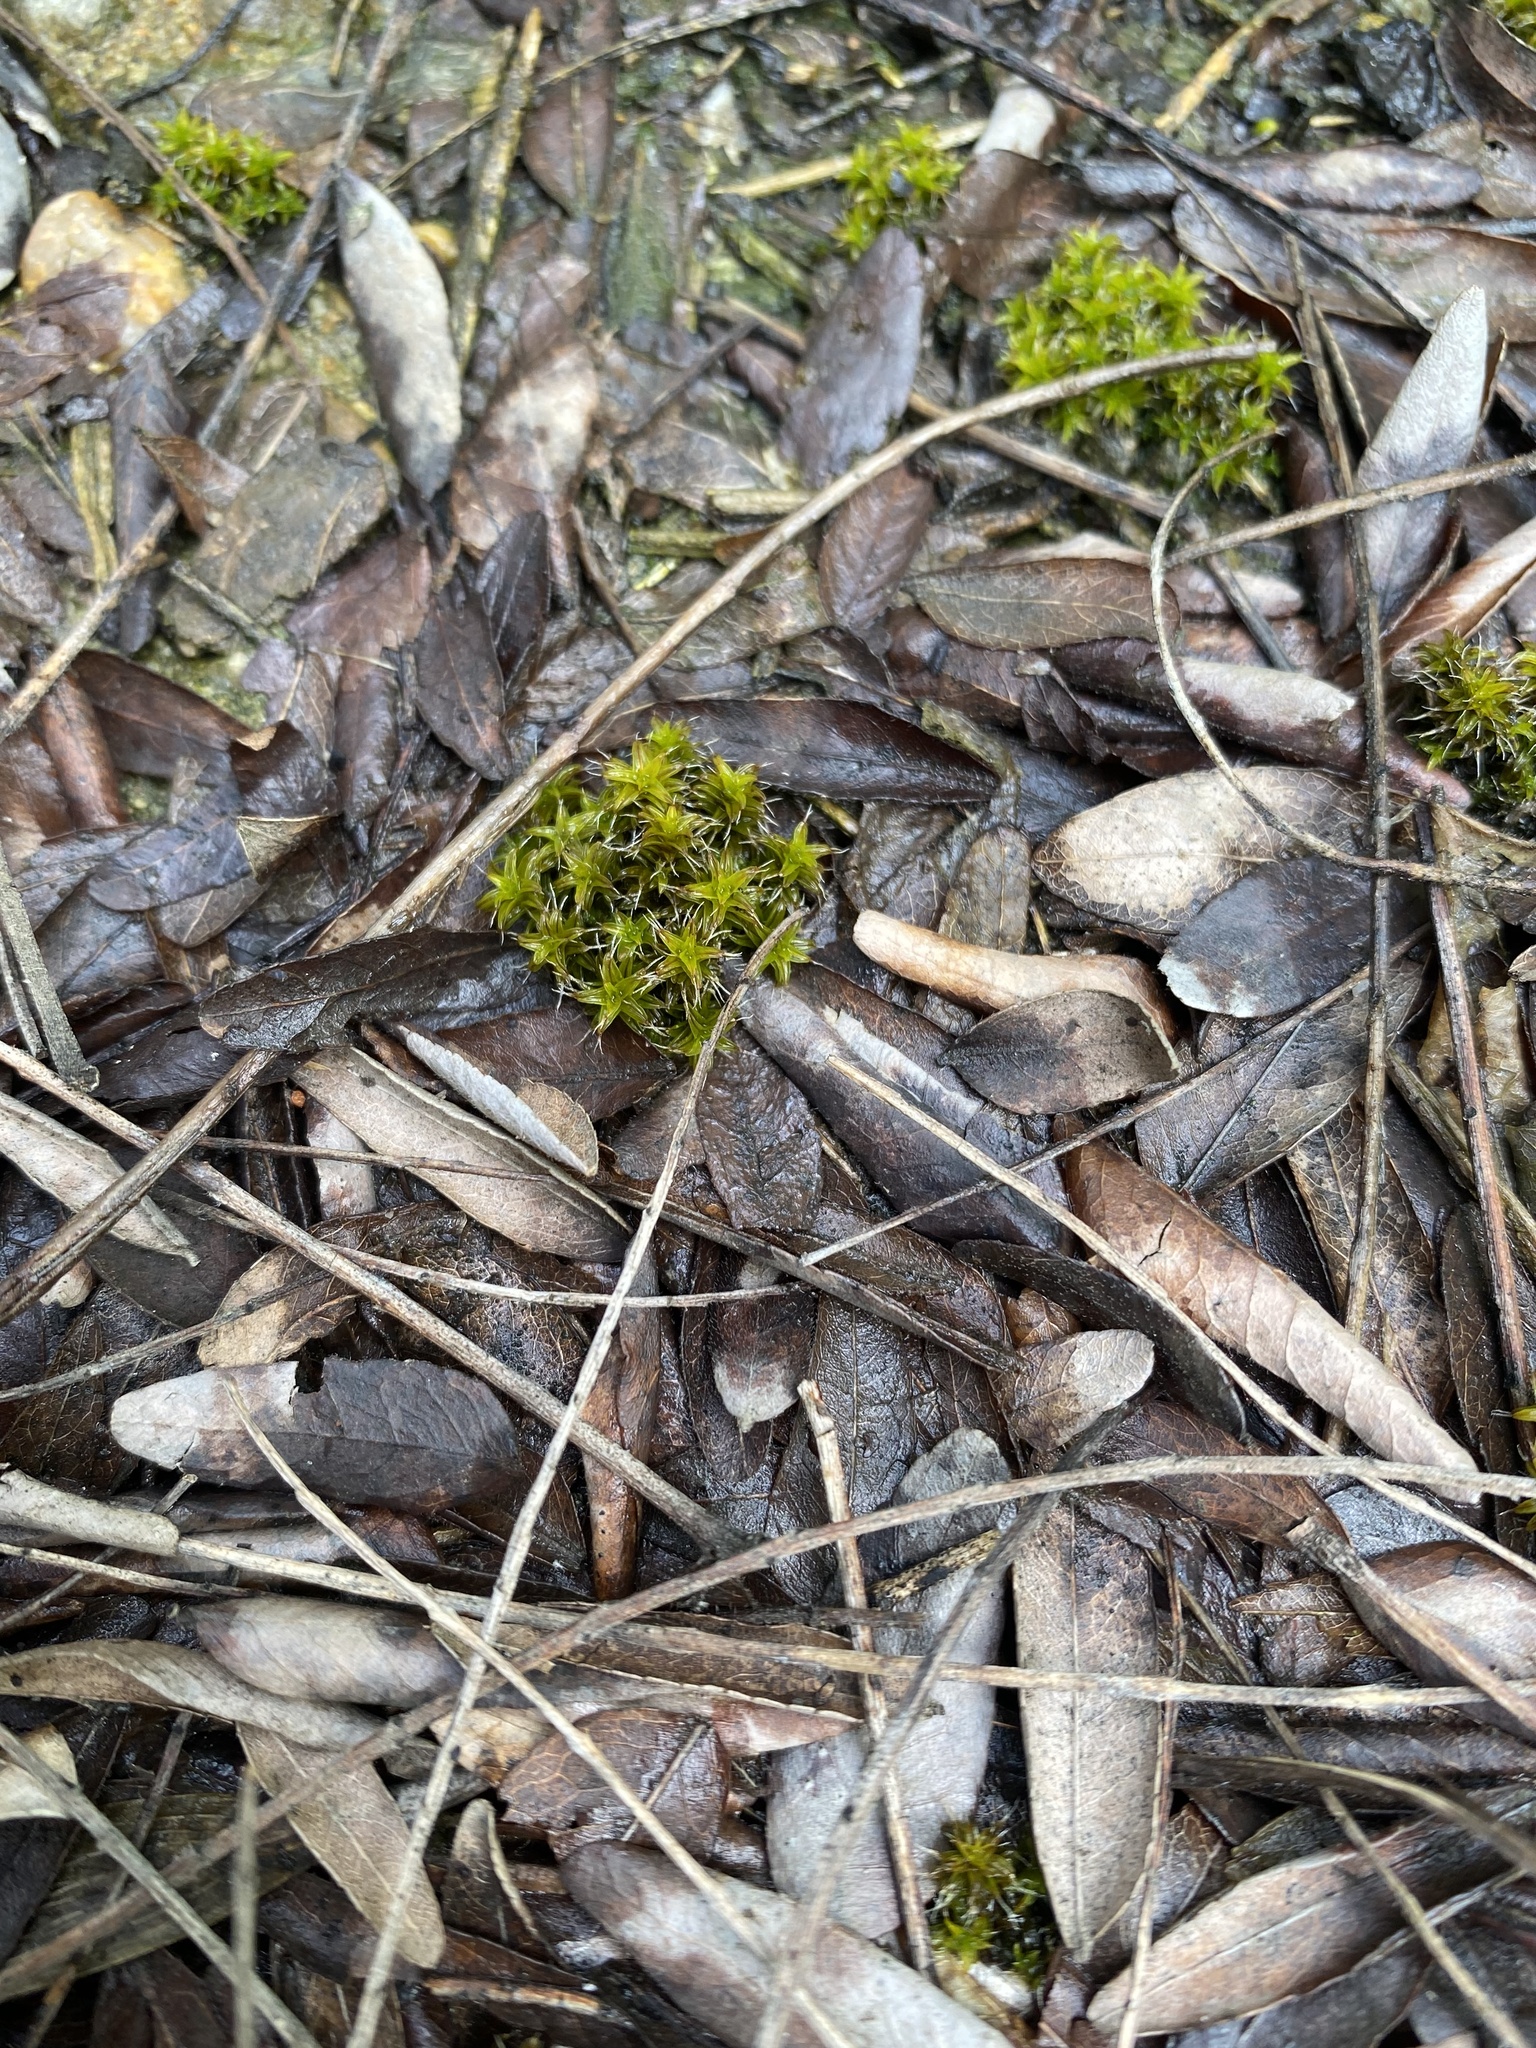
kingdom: Plantae
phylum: Bryophyta
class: Bryopsida
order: Pottiales
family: Pottiaceae
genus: Syntrichia
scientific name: Syntrichia ruralis
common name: Sidewalk screw moss
